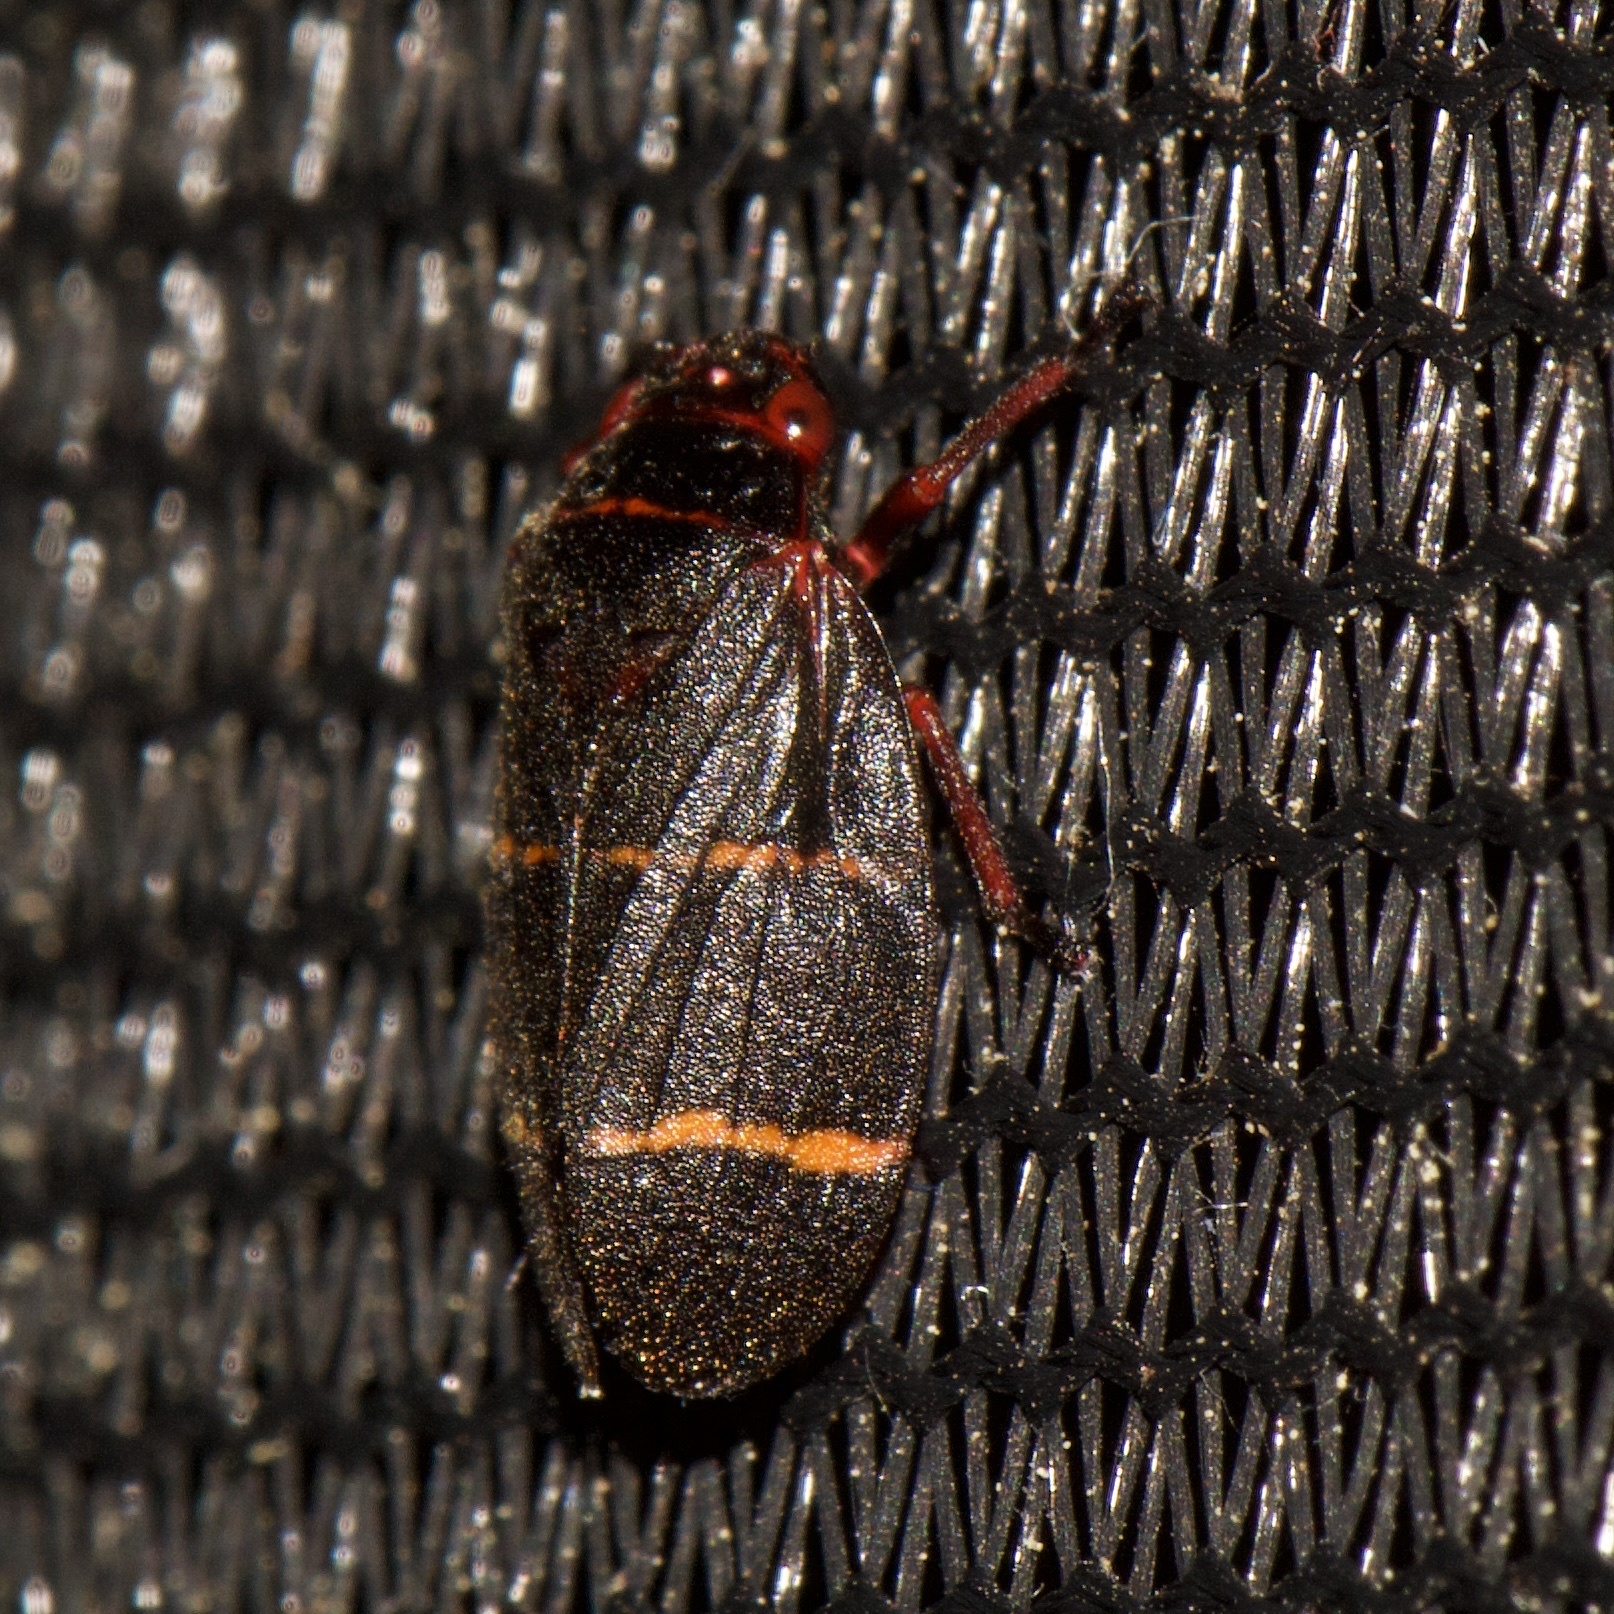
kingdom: Animalia
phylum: Arthropoda
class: Insecta
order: Hemiptera
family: Cercopidae
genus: Prosapia
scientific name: Prosapia bicincta
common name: Twolined spittlebug
